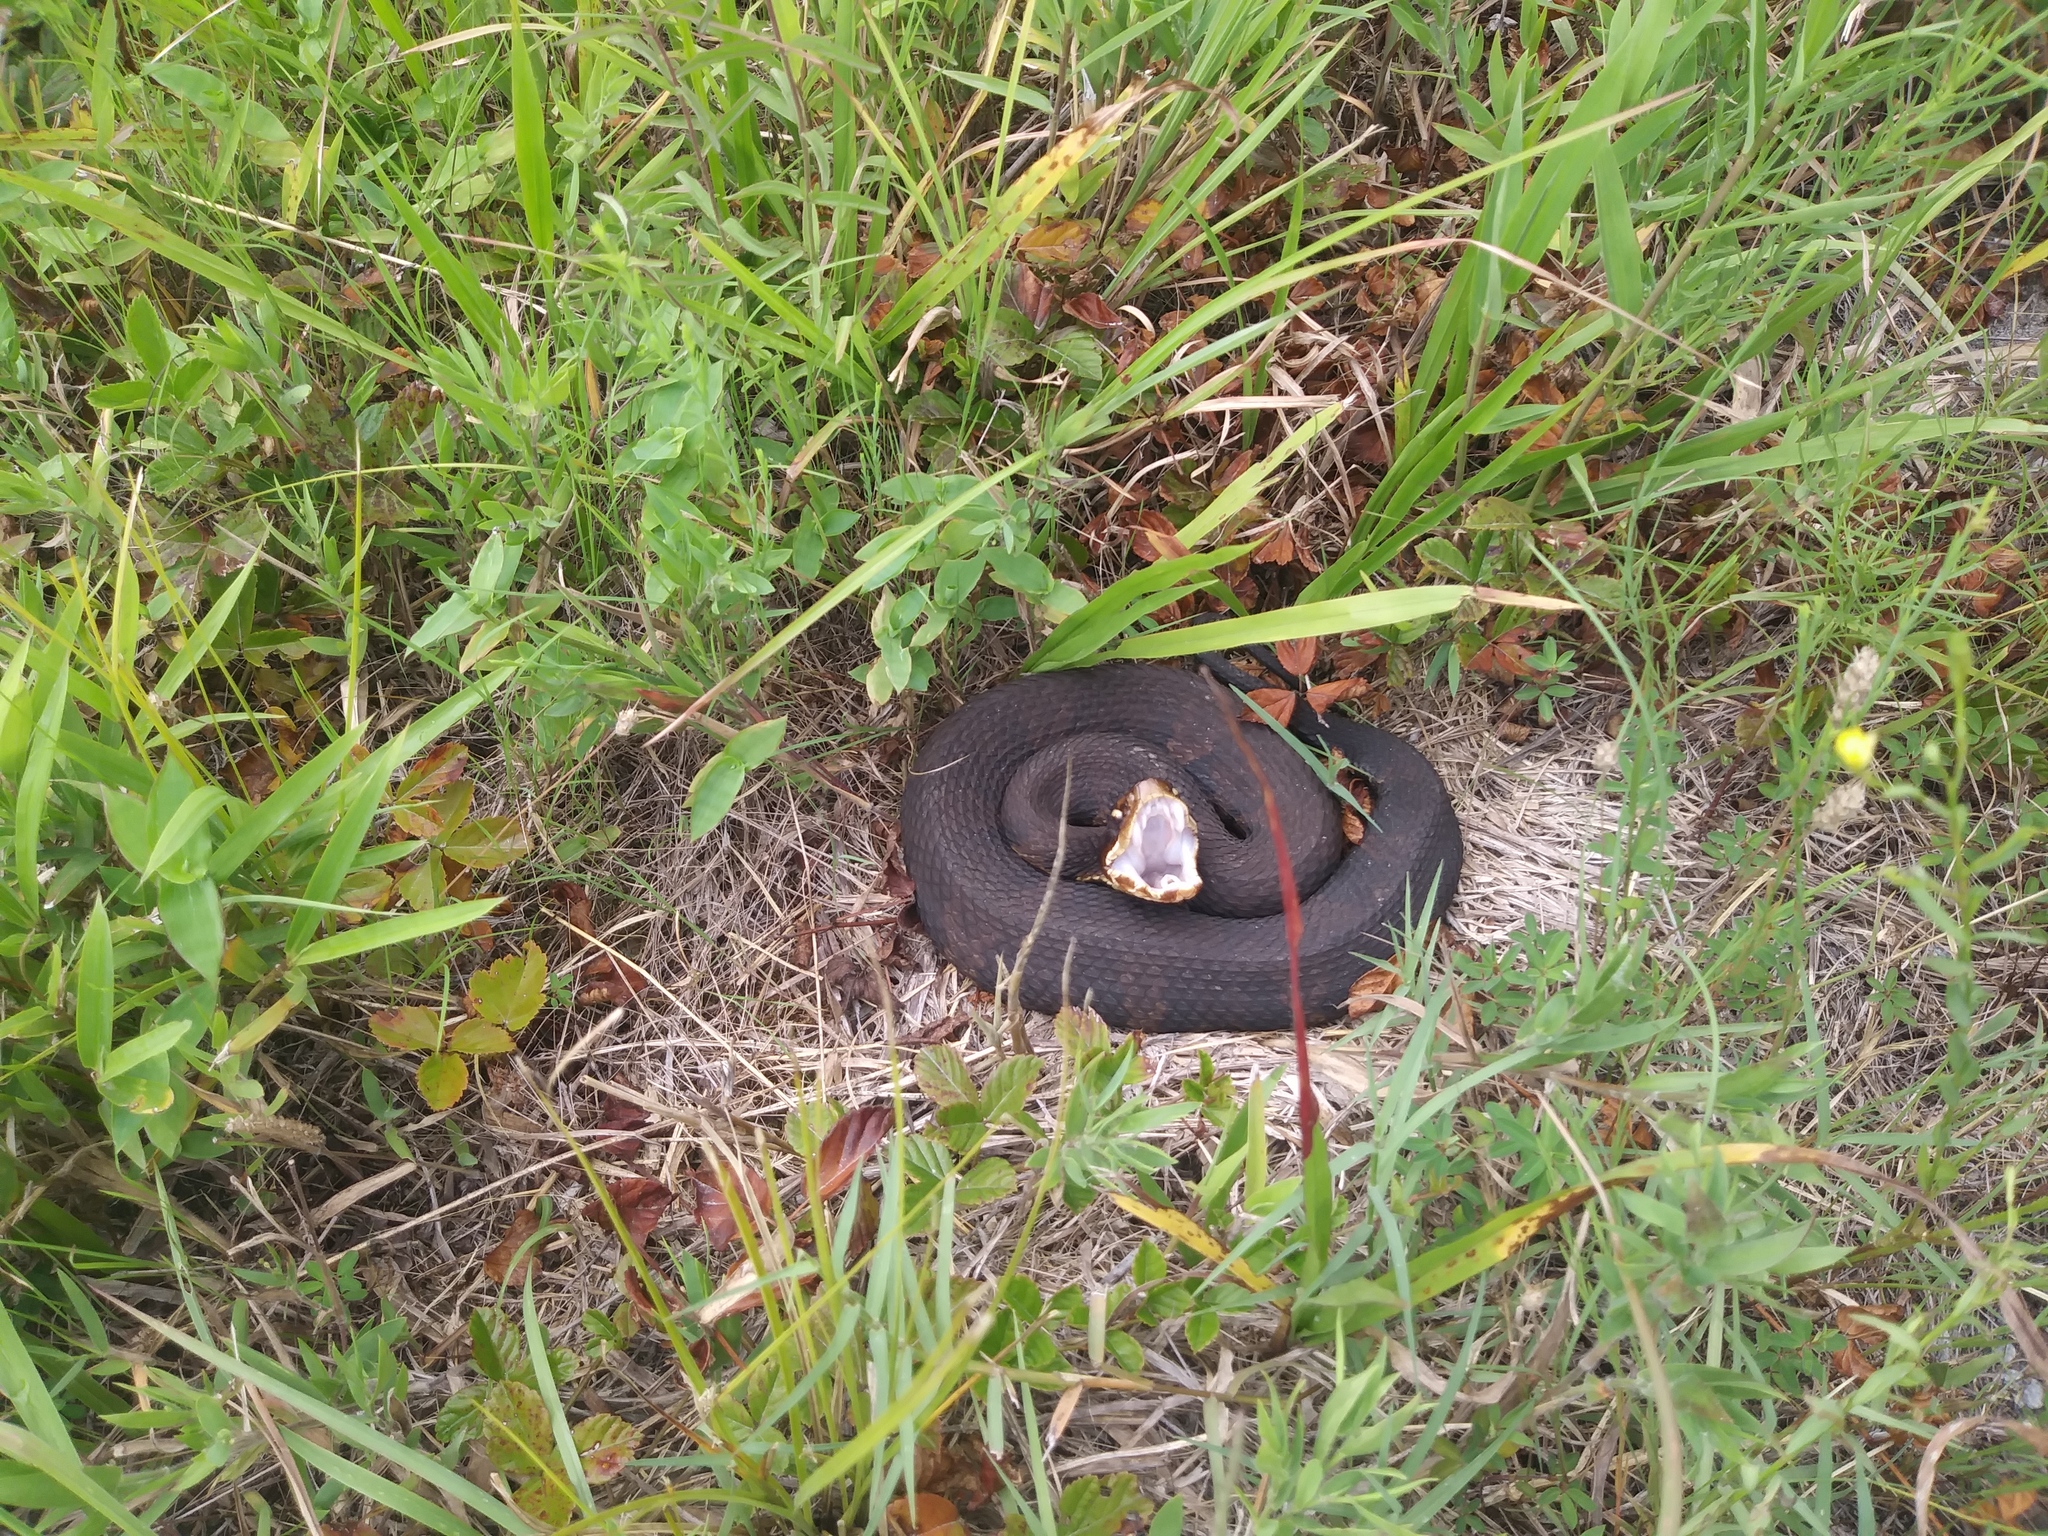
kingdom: Animalia
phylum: Chordata
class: Squamata
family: Viperidae
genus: Agkistrodon
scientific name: Agkistrodon piscivorus
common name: Cottonmouth
